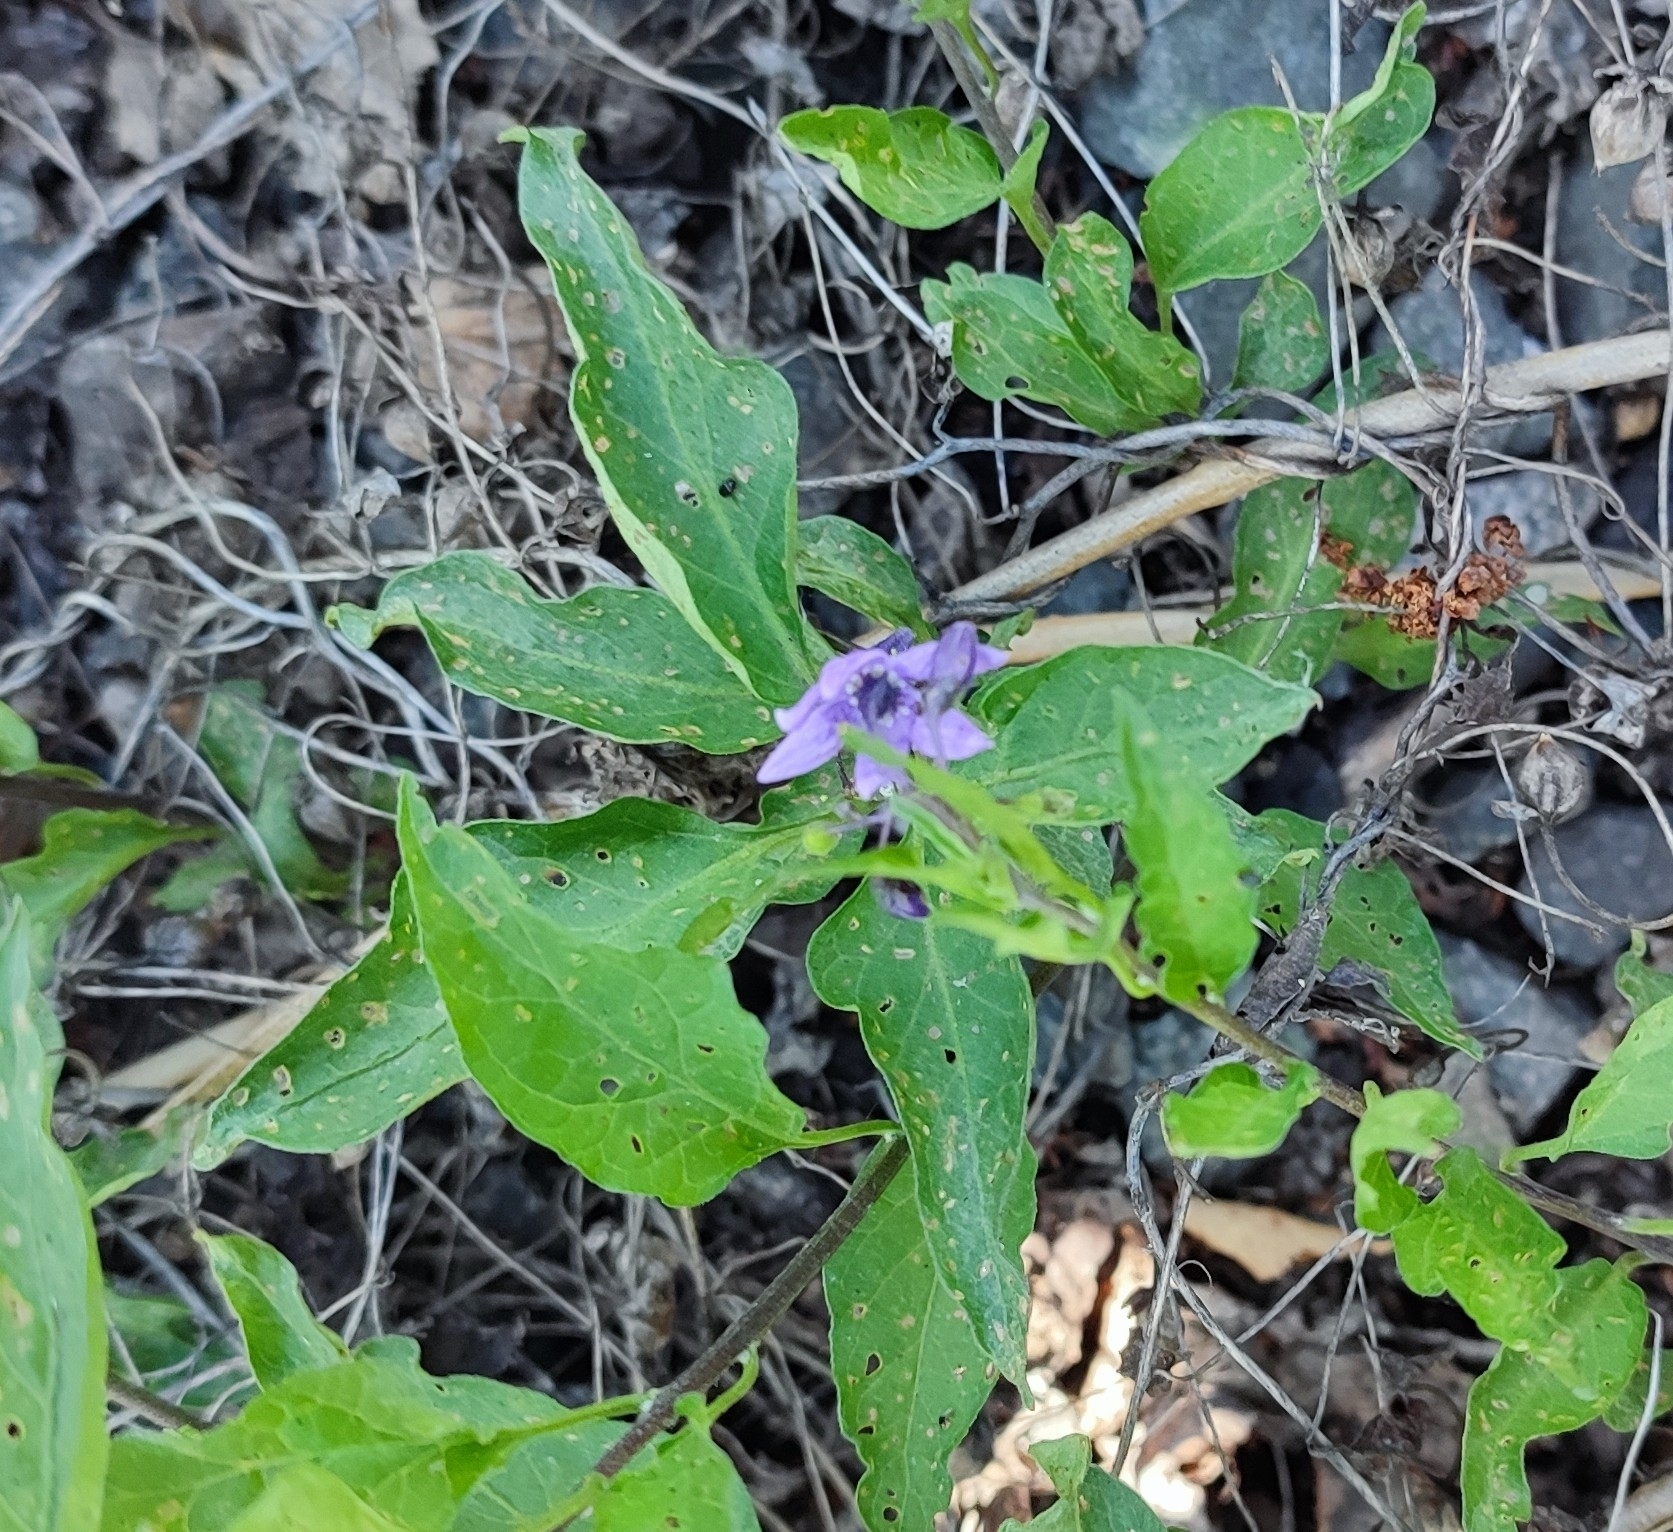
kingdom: Plantae
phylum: Tracheophyta
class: Magnoliopsida
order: Solanales
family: Solanaceae
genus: Solanum
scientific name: Solanum dulcamara
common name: Climbing nightshade
